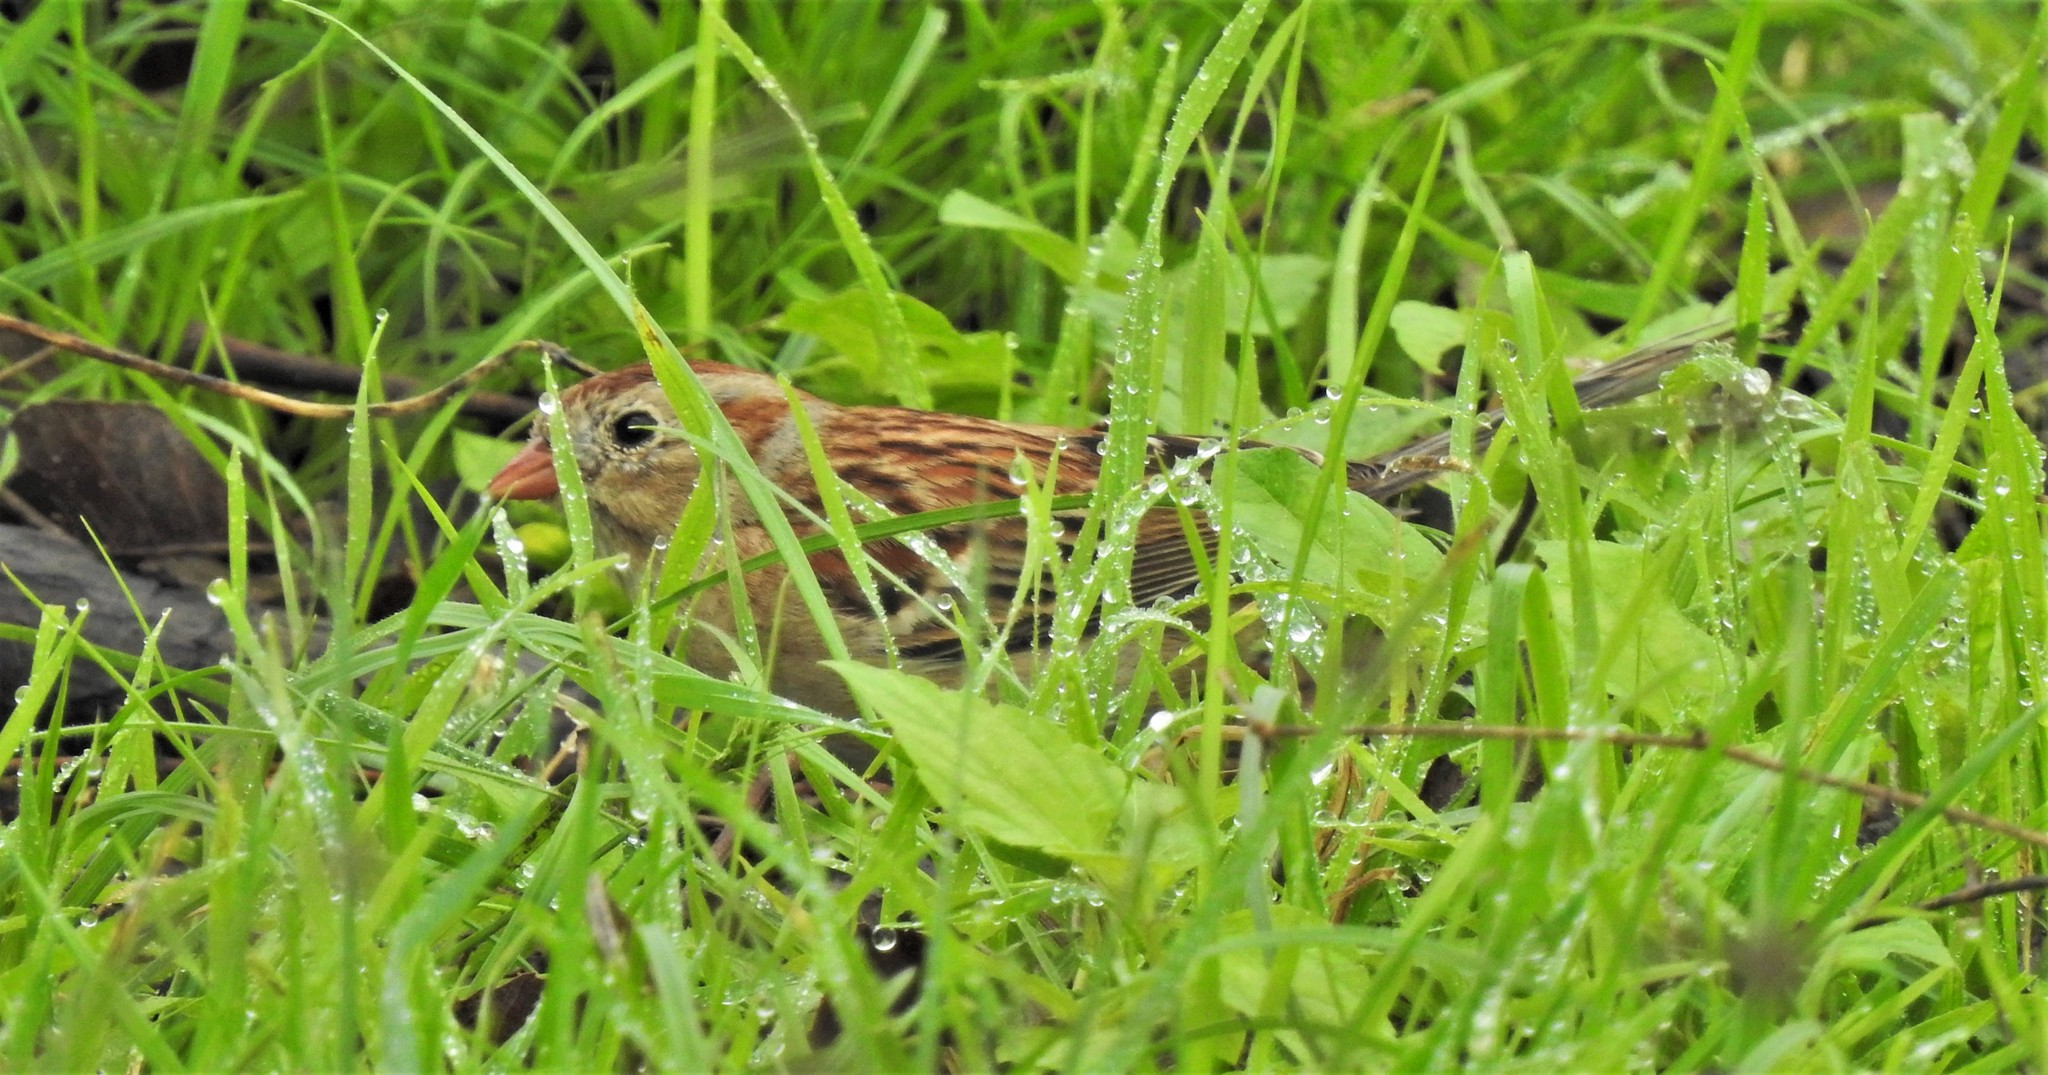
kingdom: Animalia
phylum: Chordata
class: Aves
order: Passeriformes
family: Passerellidae
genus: Spizella
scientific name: Spizella pusilla
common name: Field sparrow
